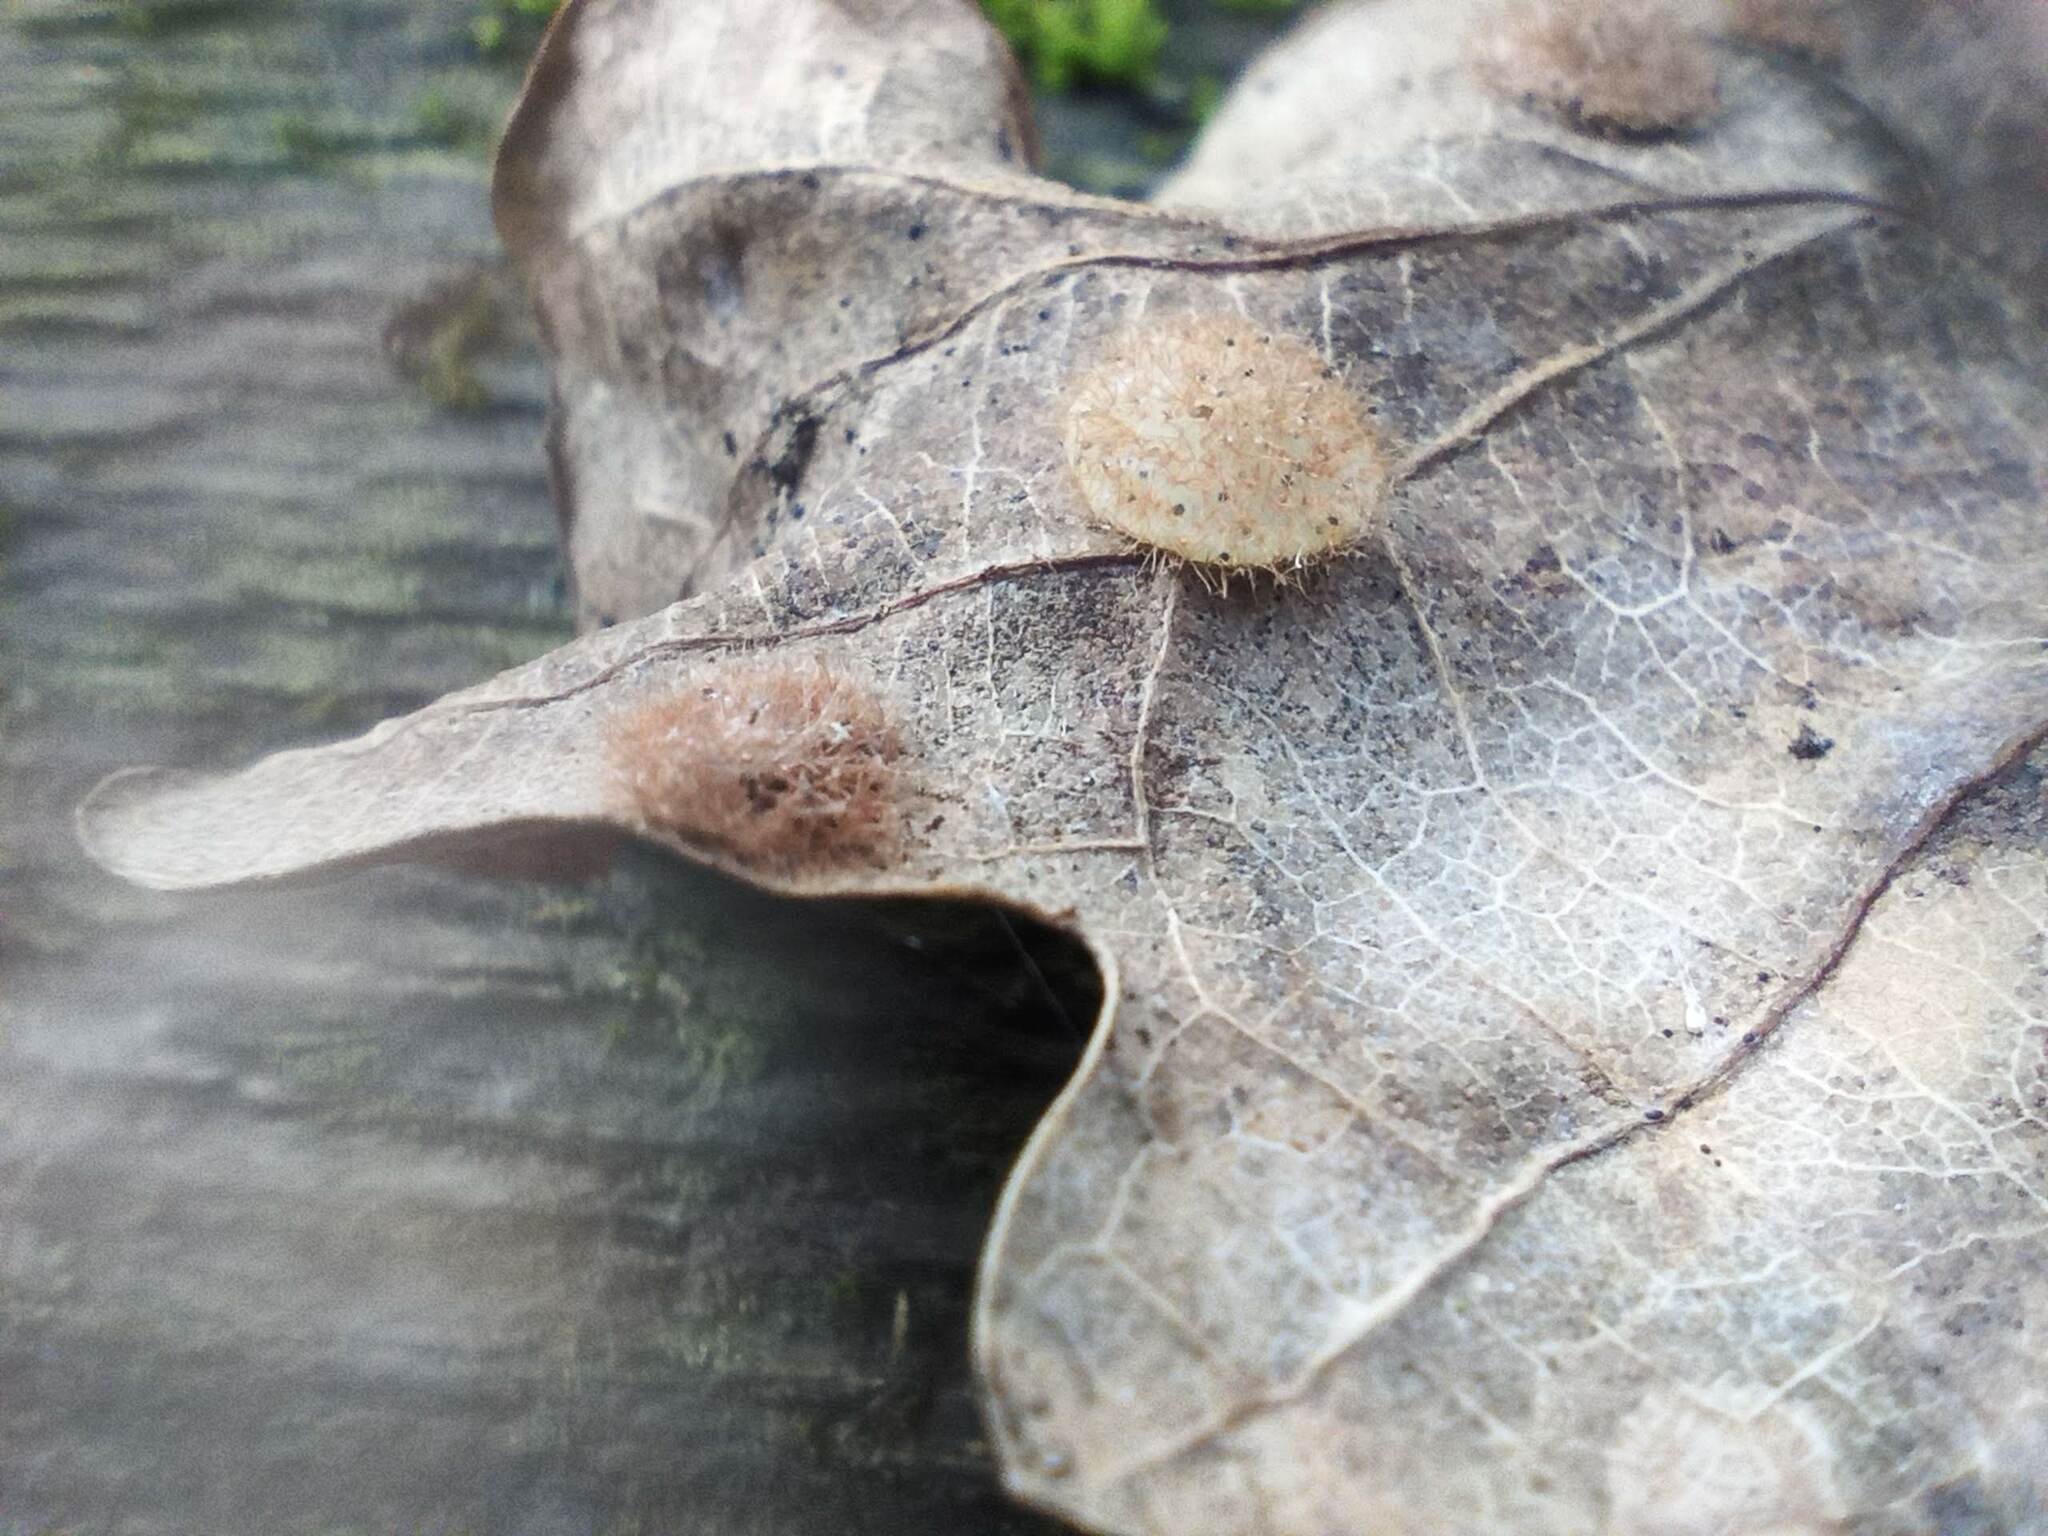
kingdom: Animalia
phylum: Arthropoda
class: Insecta
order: Hymenoptera
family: Cynipidae
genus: Neuroterus
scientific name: Neuroterus quercusbaccarum
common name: Common spangle gall
